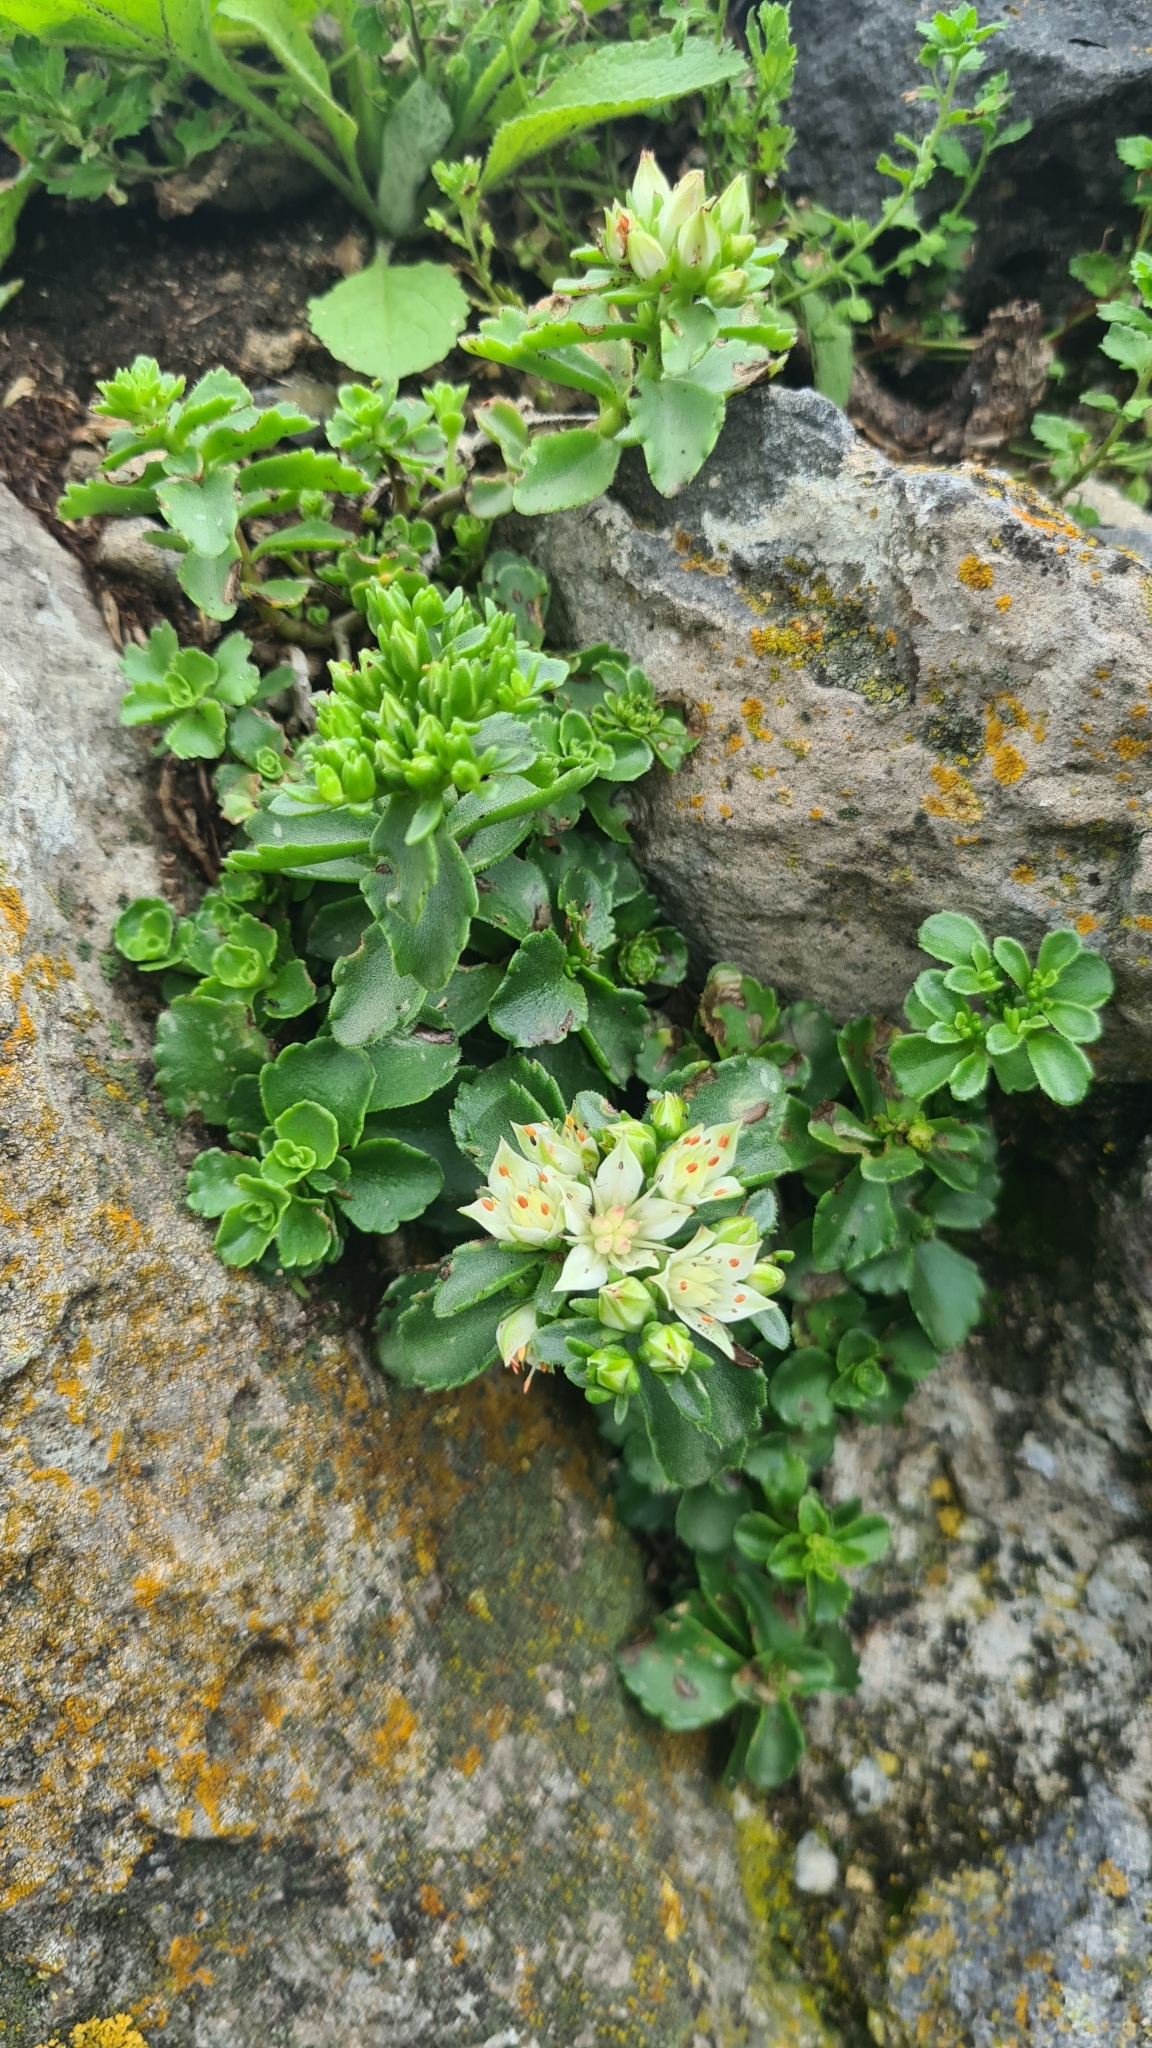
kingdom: Plantae
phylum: Tracheophyta
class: Magnoliopsida
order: Saxifragales
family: Crassulaceae
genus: Phedimus
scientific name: Phedimus spurius
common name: Caucasian stonecrop
